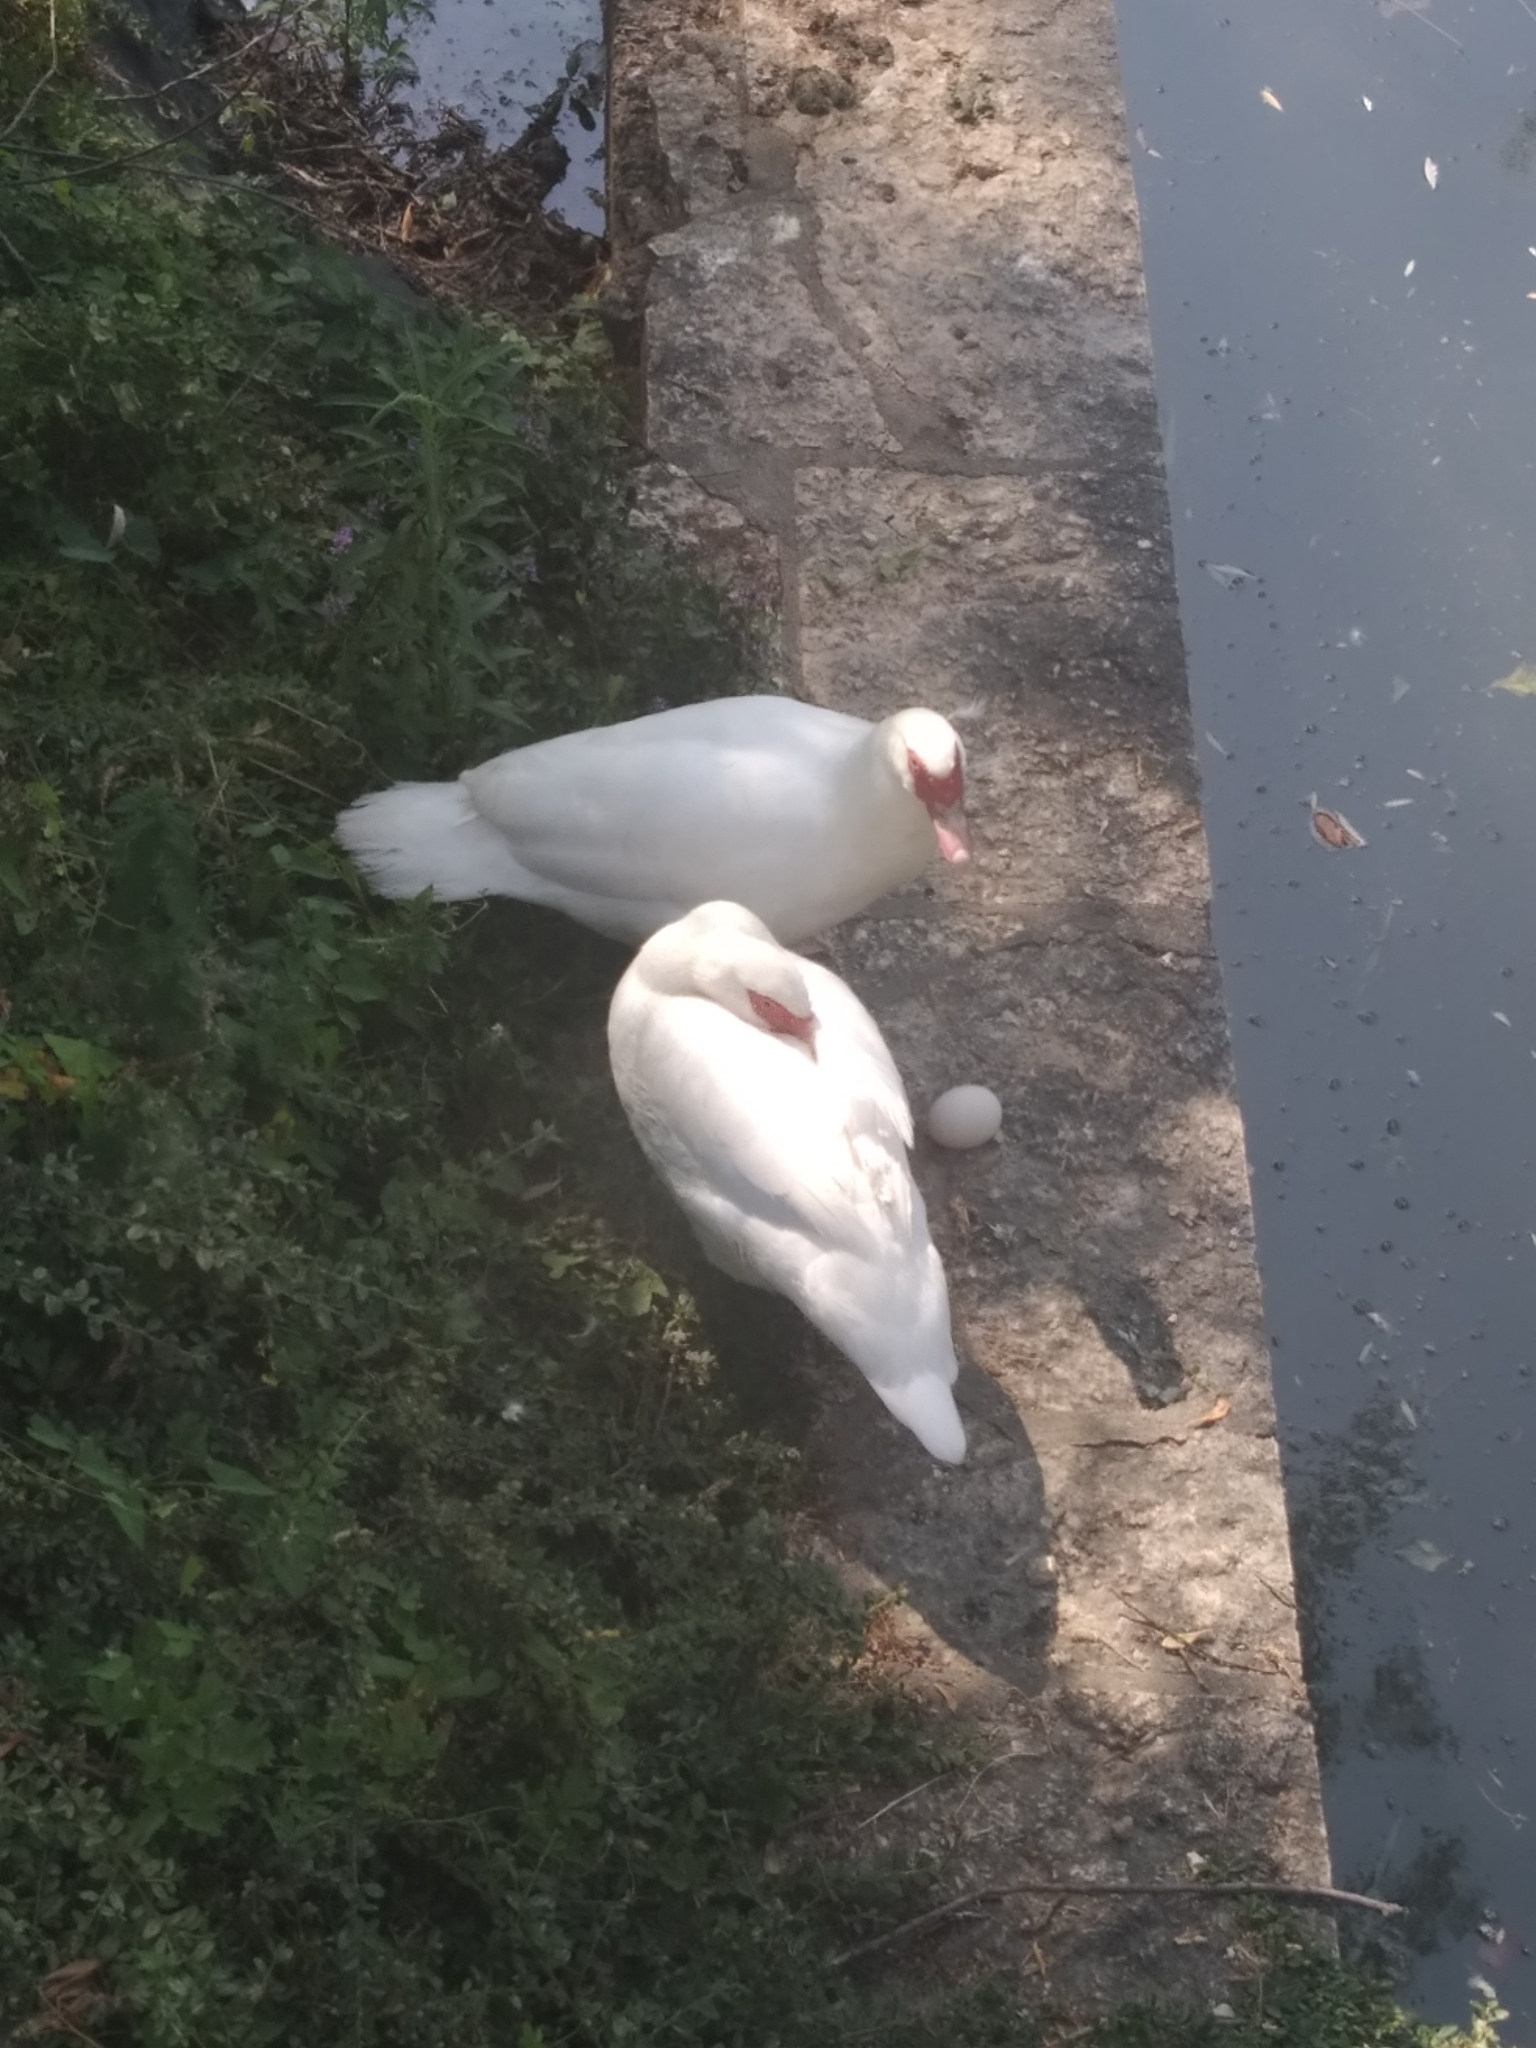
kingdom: Animalia
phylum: Chordata
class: Aves
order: Anseriformes
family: Anatidae
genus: Cairina
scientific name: Cairina moschata
